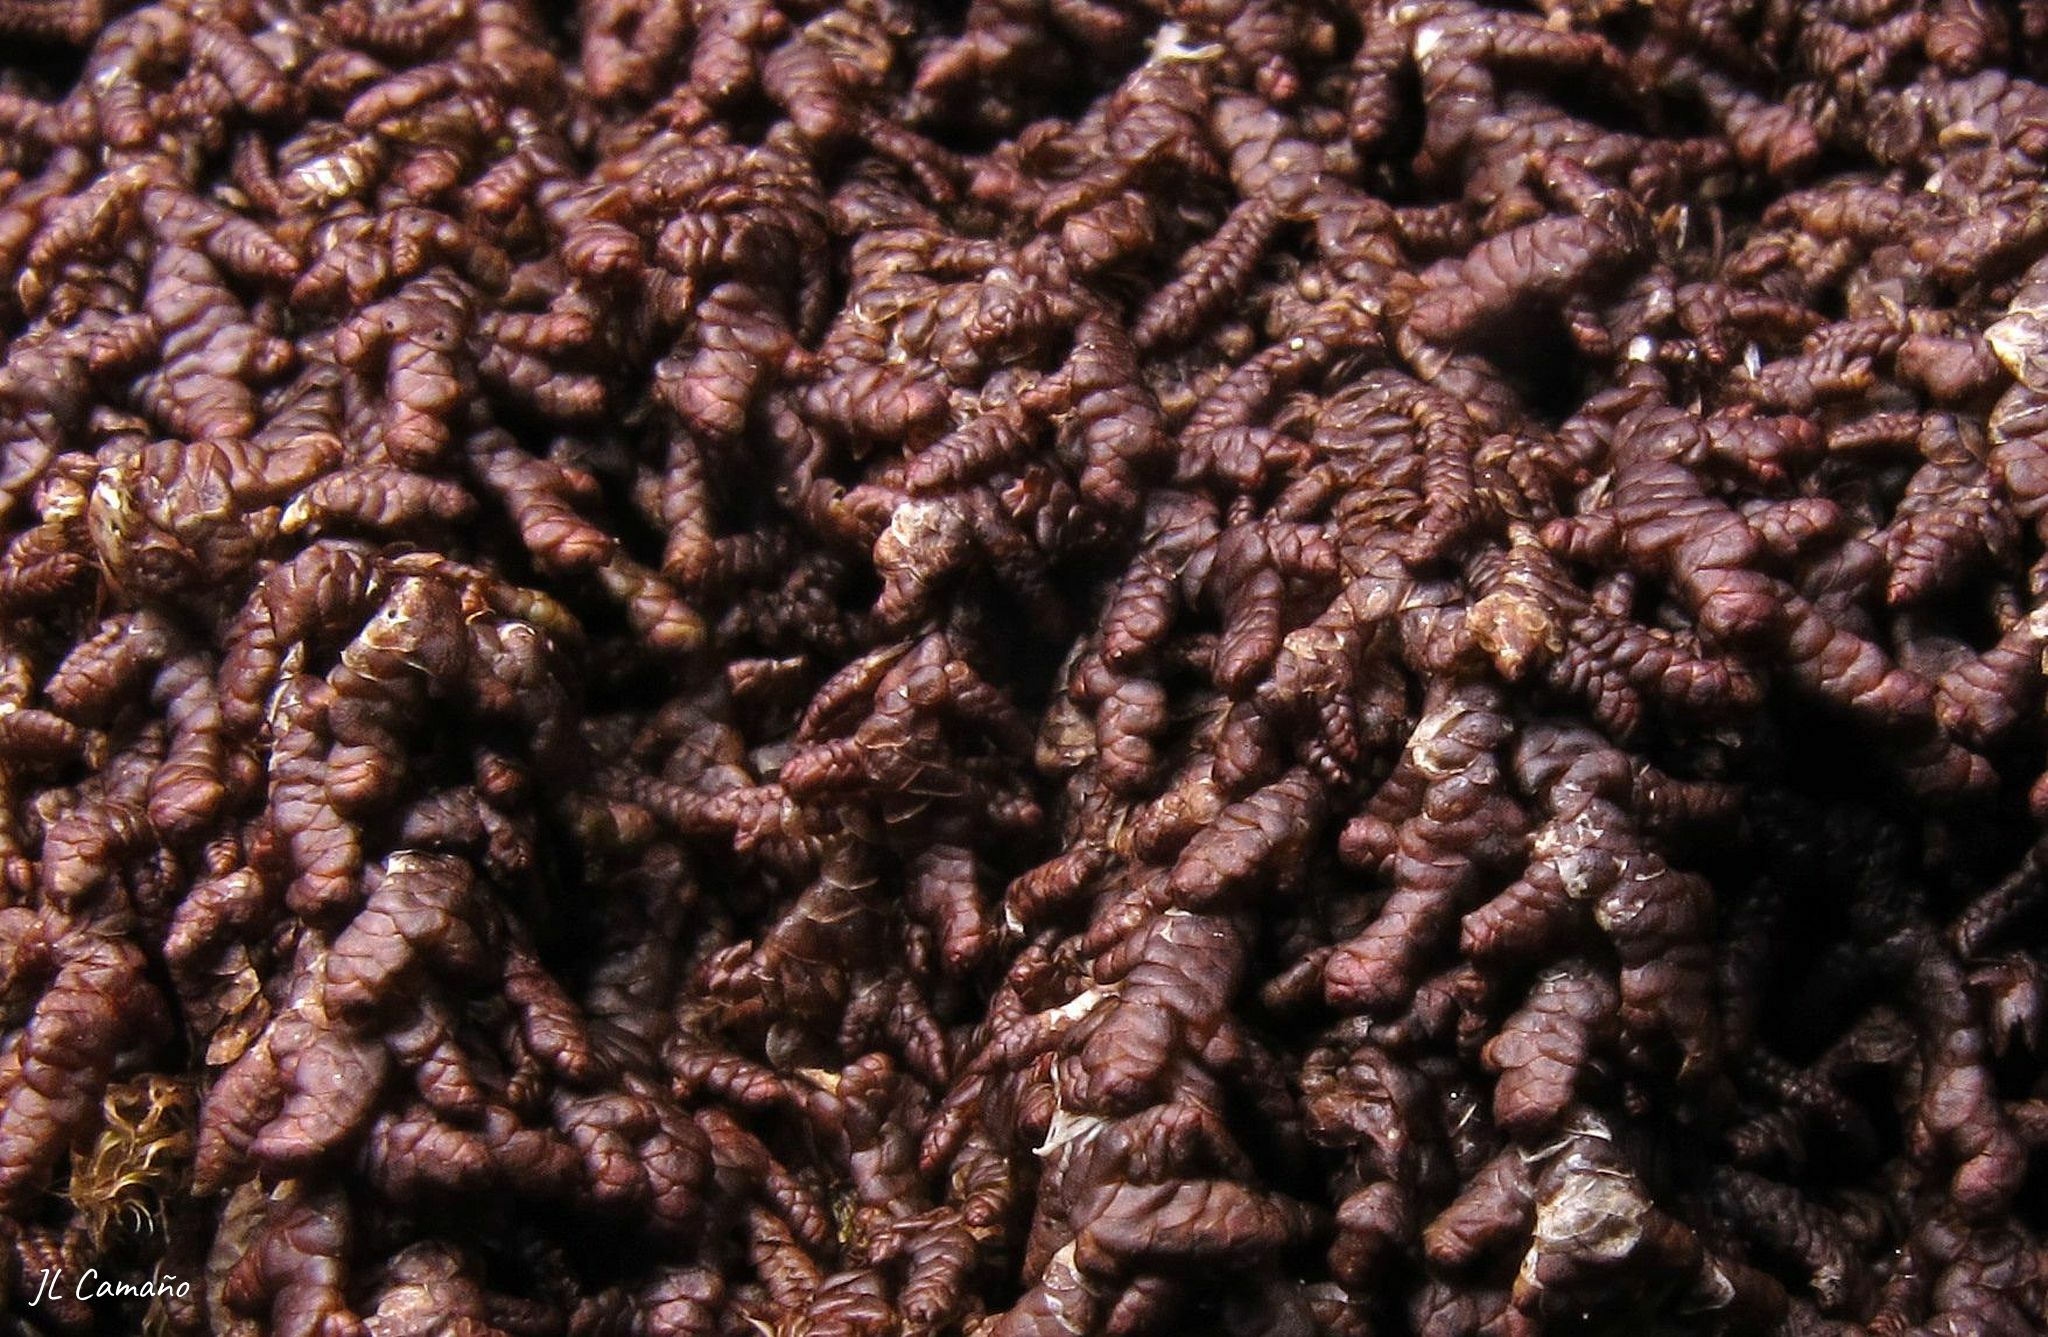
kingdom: Plantae
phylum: Marchantiophyta
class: Jungermanniopsida
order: Porellales
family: Frullaniaceae
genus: Frullania
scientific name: Frullania tamarisci
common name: Tamarisk scalewort
